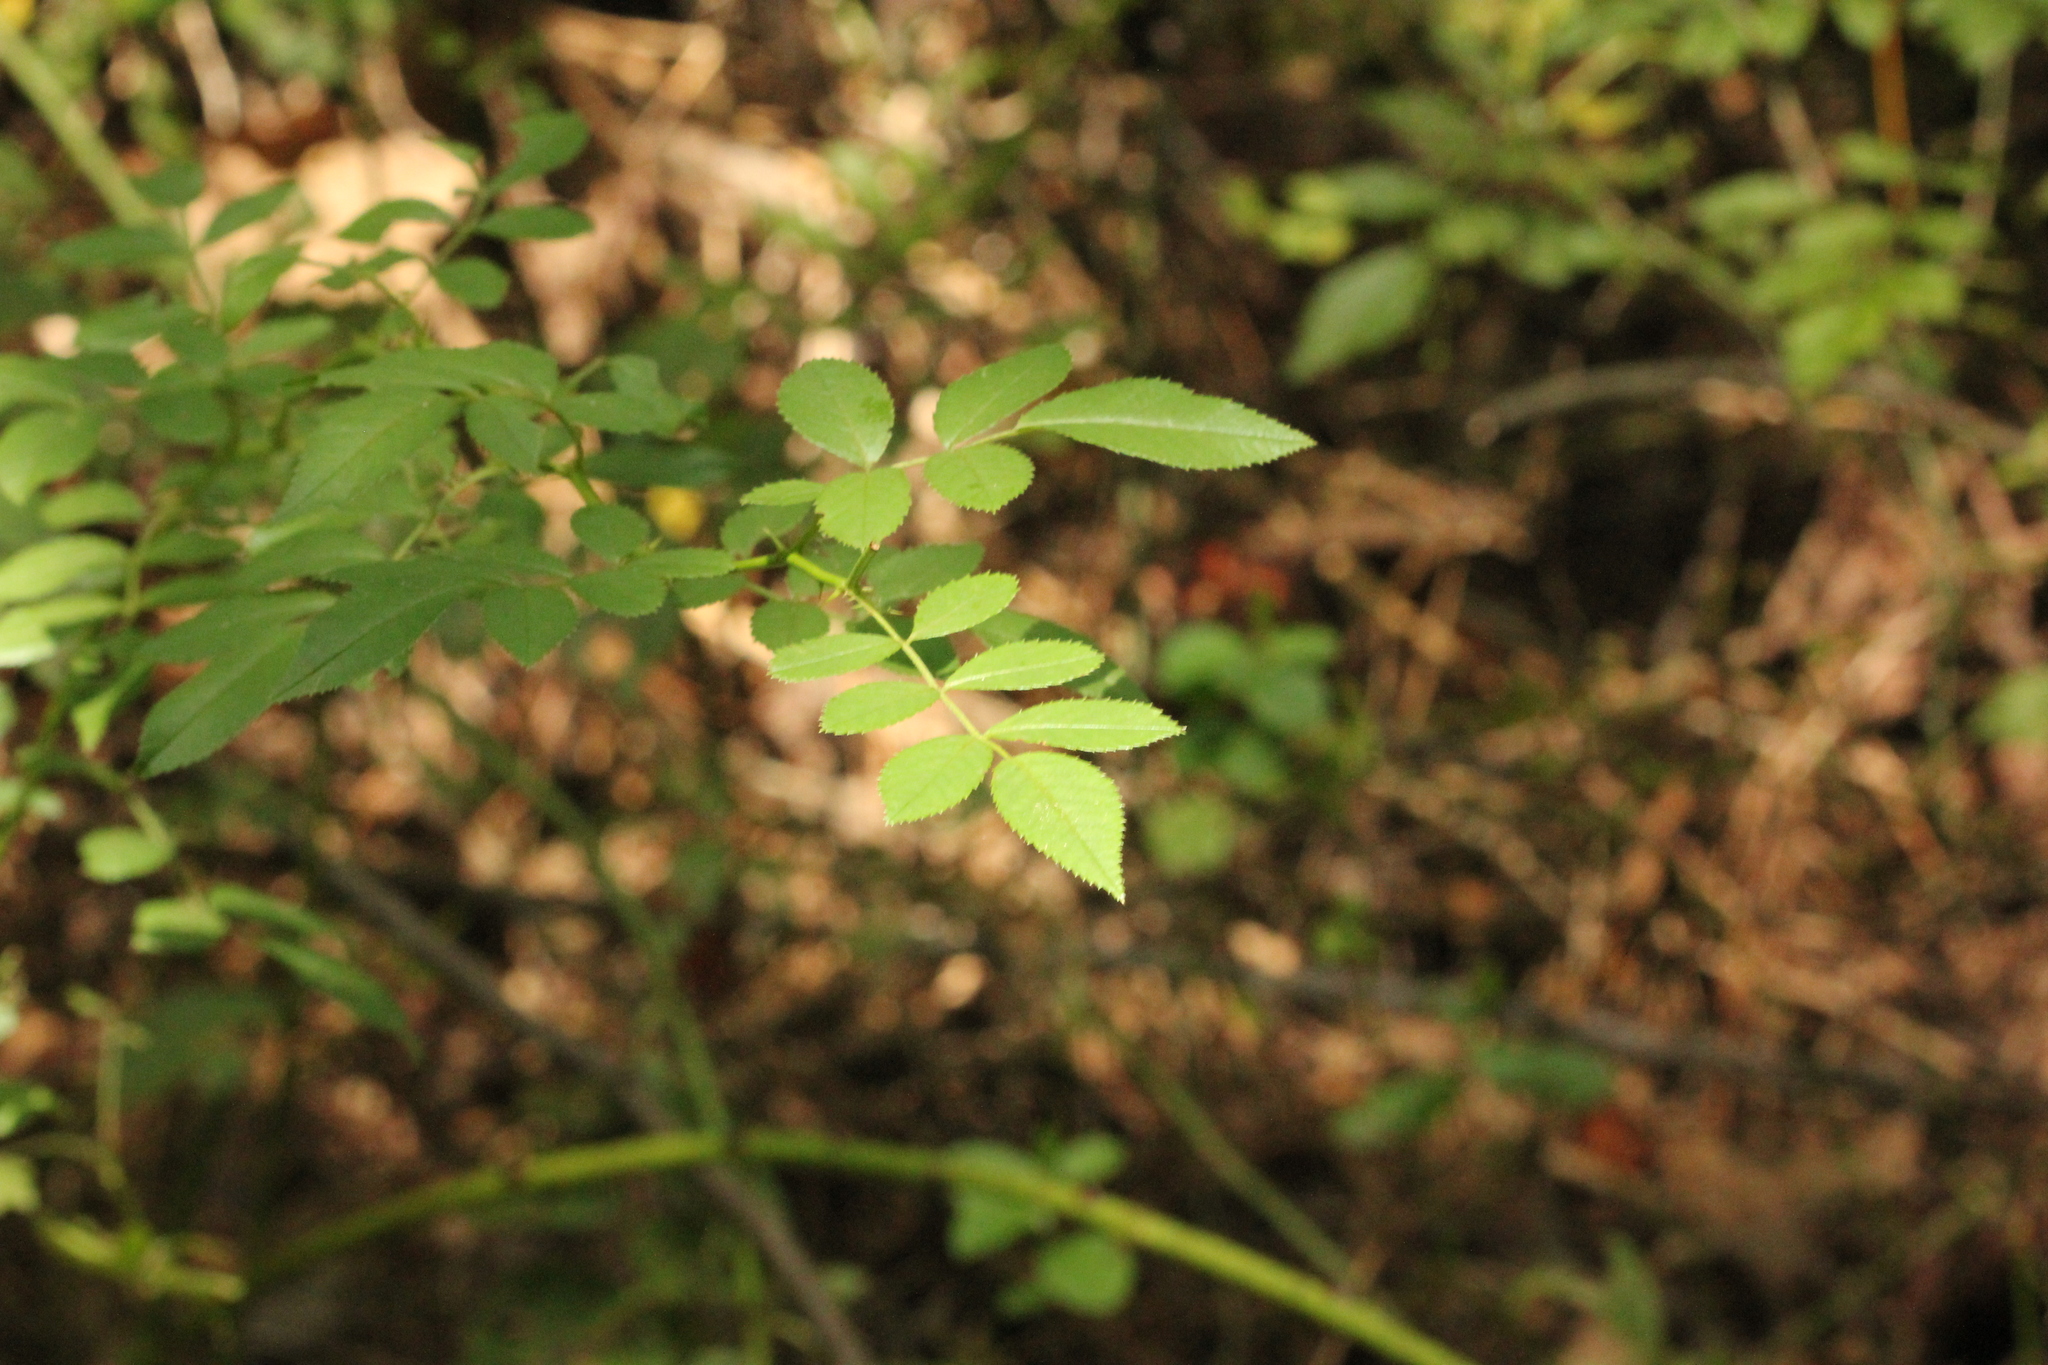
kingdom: Plantae
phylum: Tracheophyta
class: Magnoliopsida
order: Rosales
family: Rosaceae
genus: Rosa
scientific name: Rosa multiflora
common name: Multiflora rose
